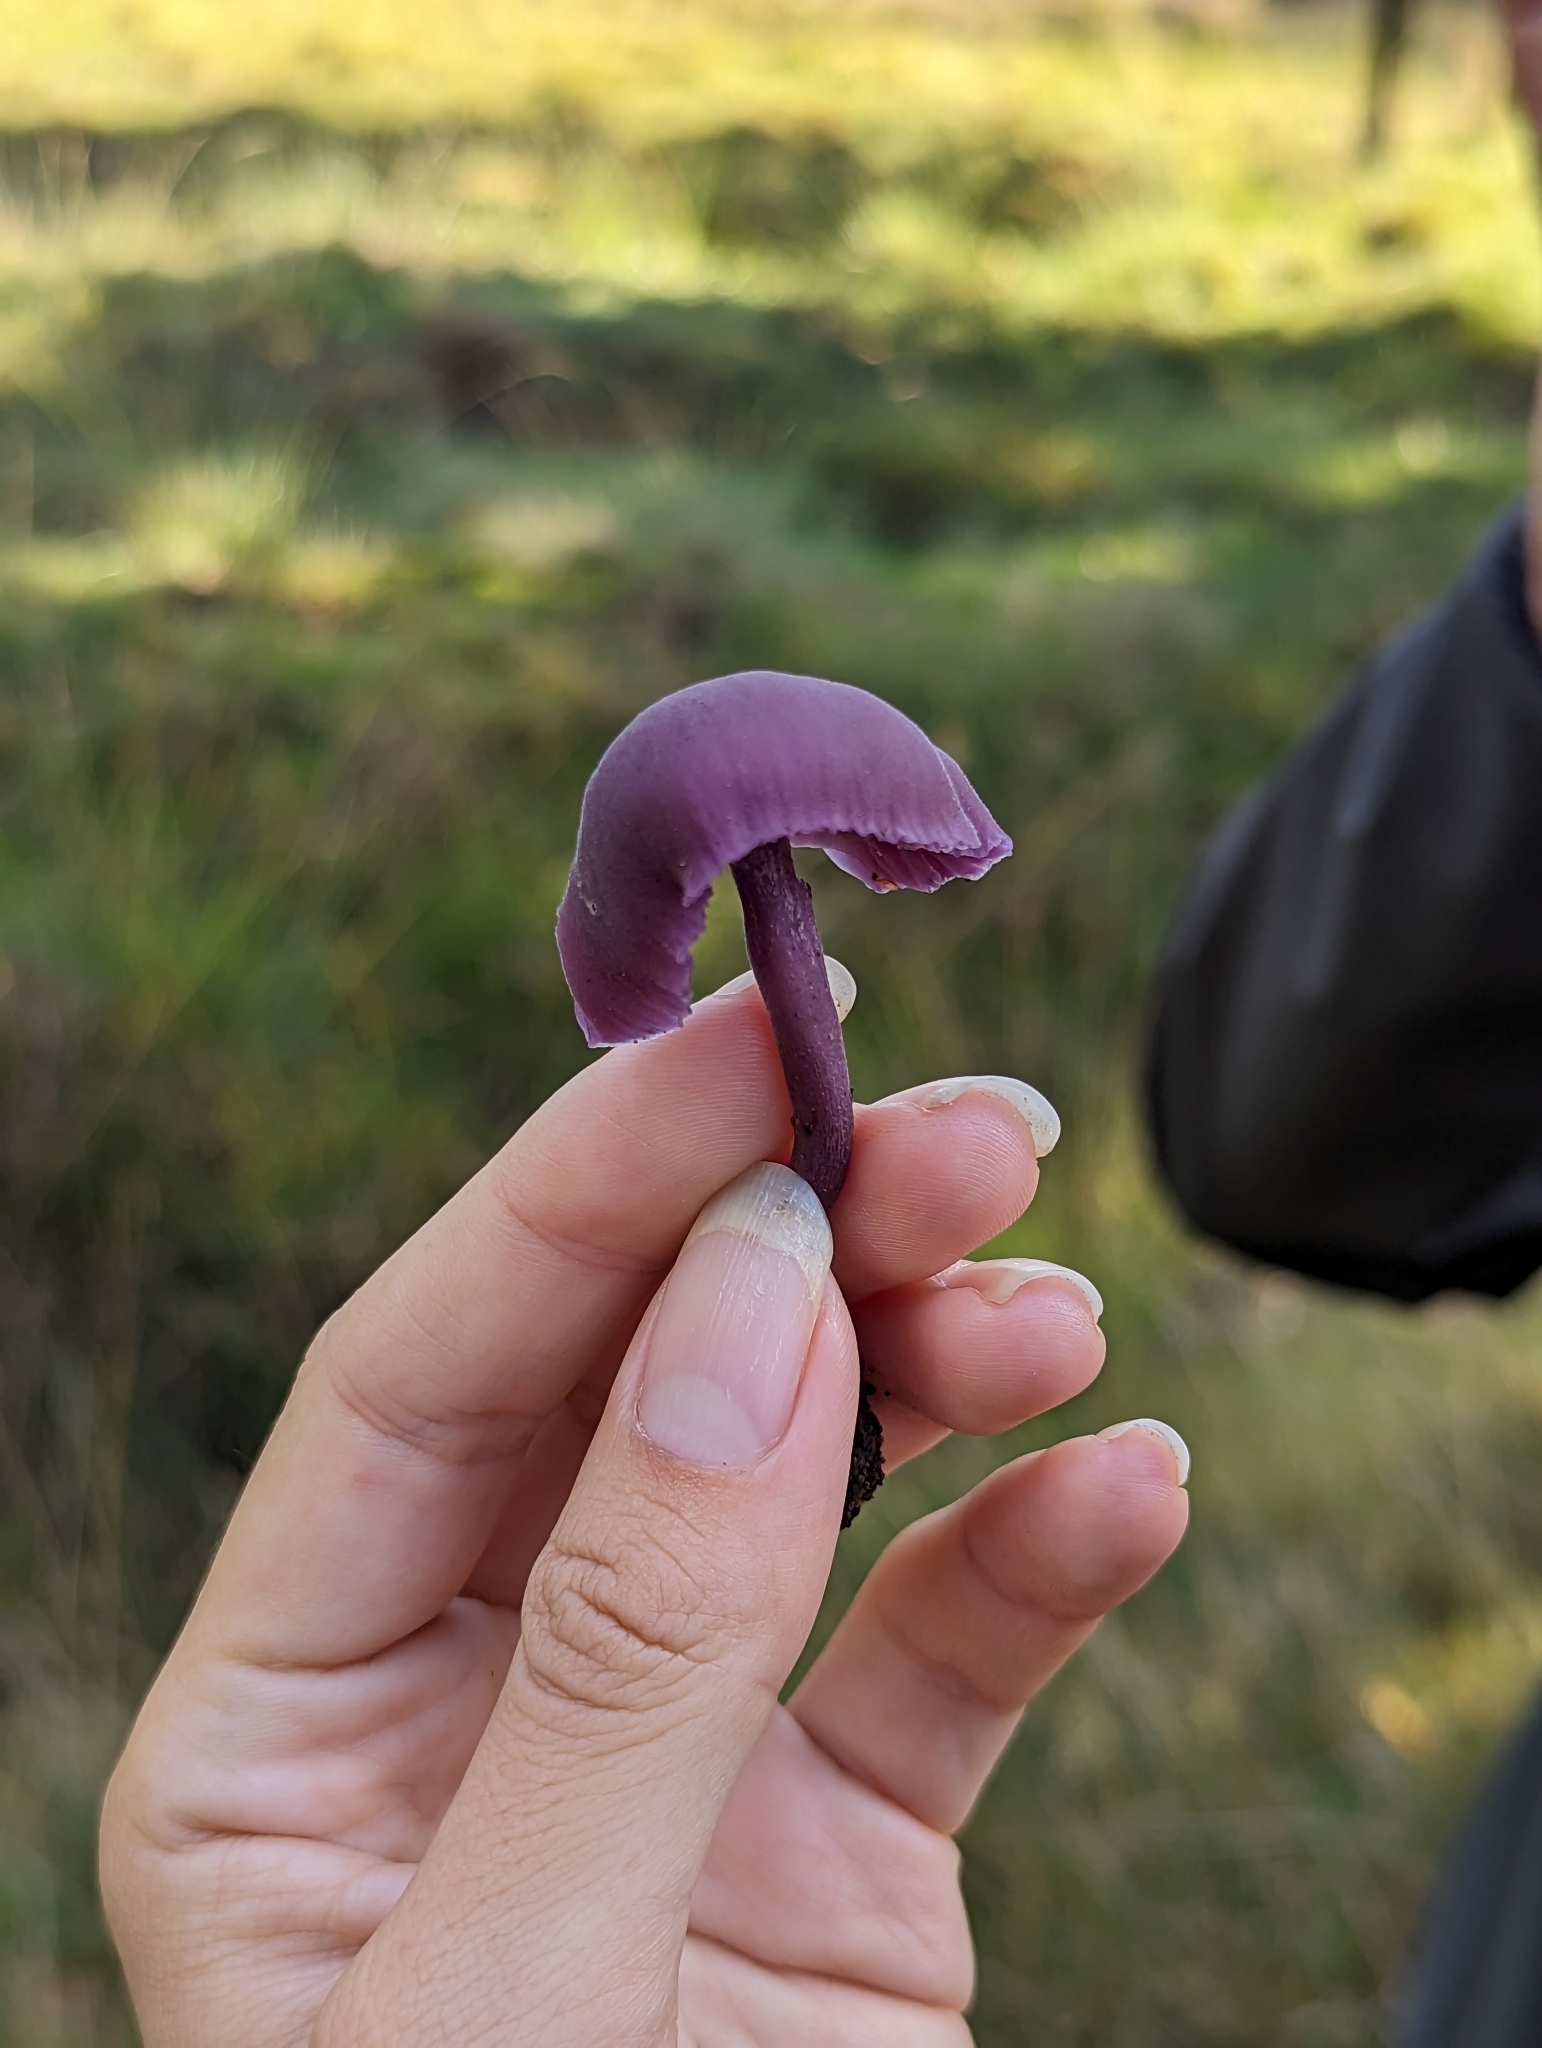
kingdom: Fungi
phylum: Basidiomycota
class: Agaricomycetes
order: Agaricales
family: Hydnangiaceae
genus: Laccaria
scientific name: Laccaria amethystina
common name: Amethyst deceiver
